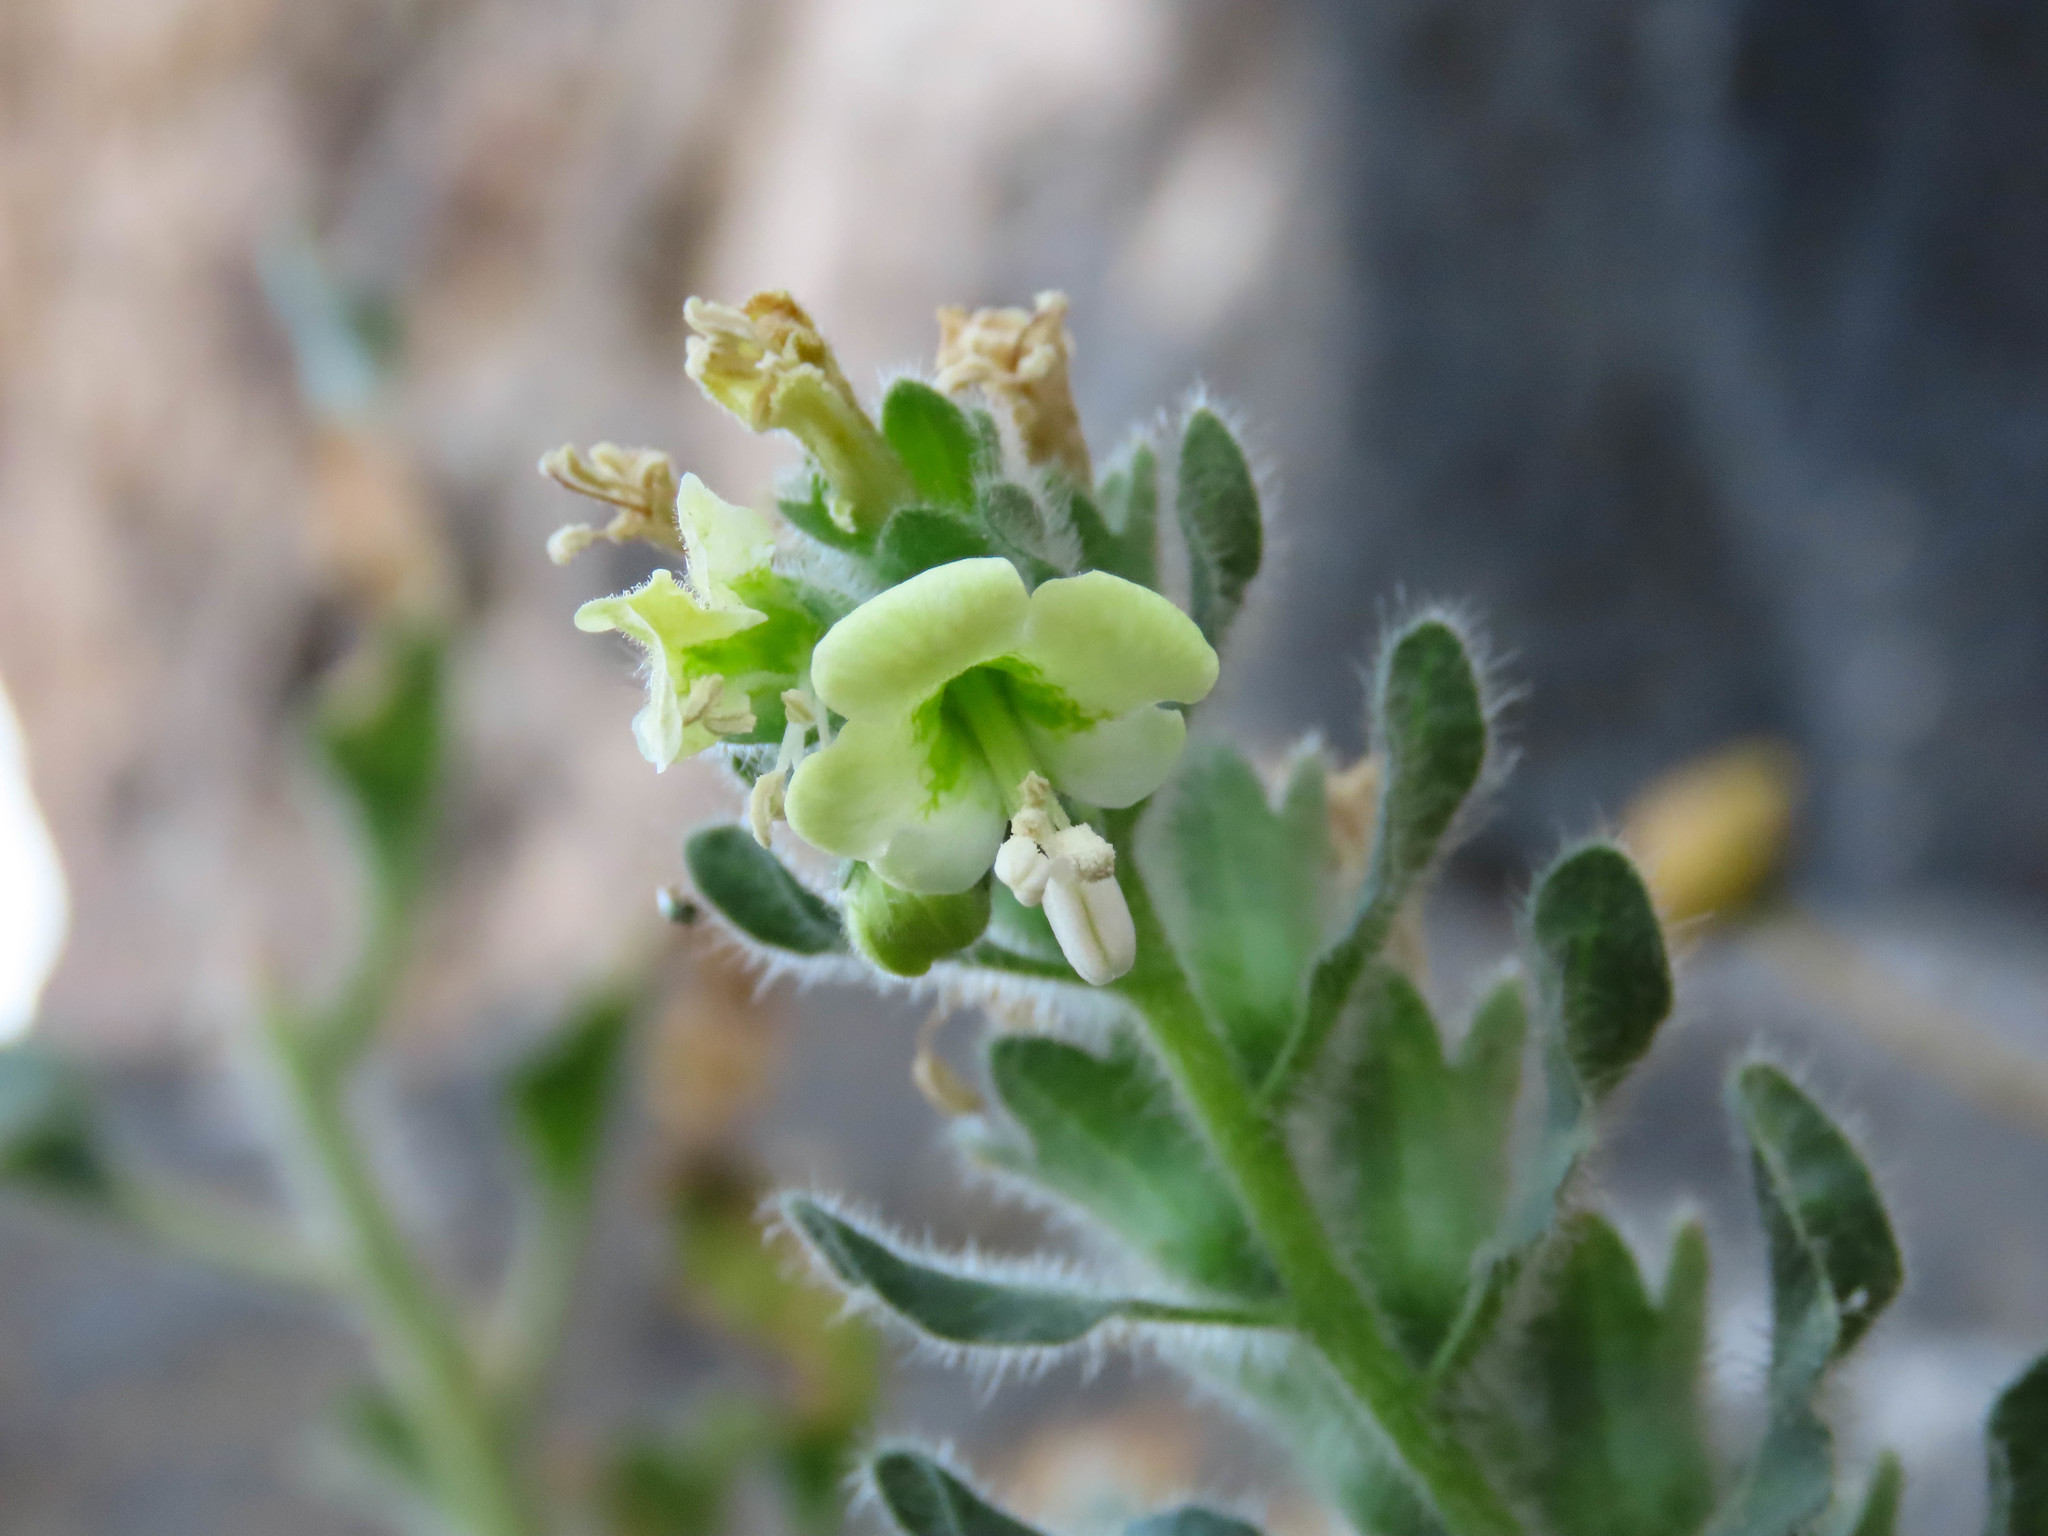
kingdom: Plantae
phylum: Tracheophyta
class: Magnoliopsida
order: Solanales
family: Solanaceae
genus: Hyoscyamus
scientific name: Hyoscyamus albus
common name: White henbane
